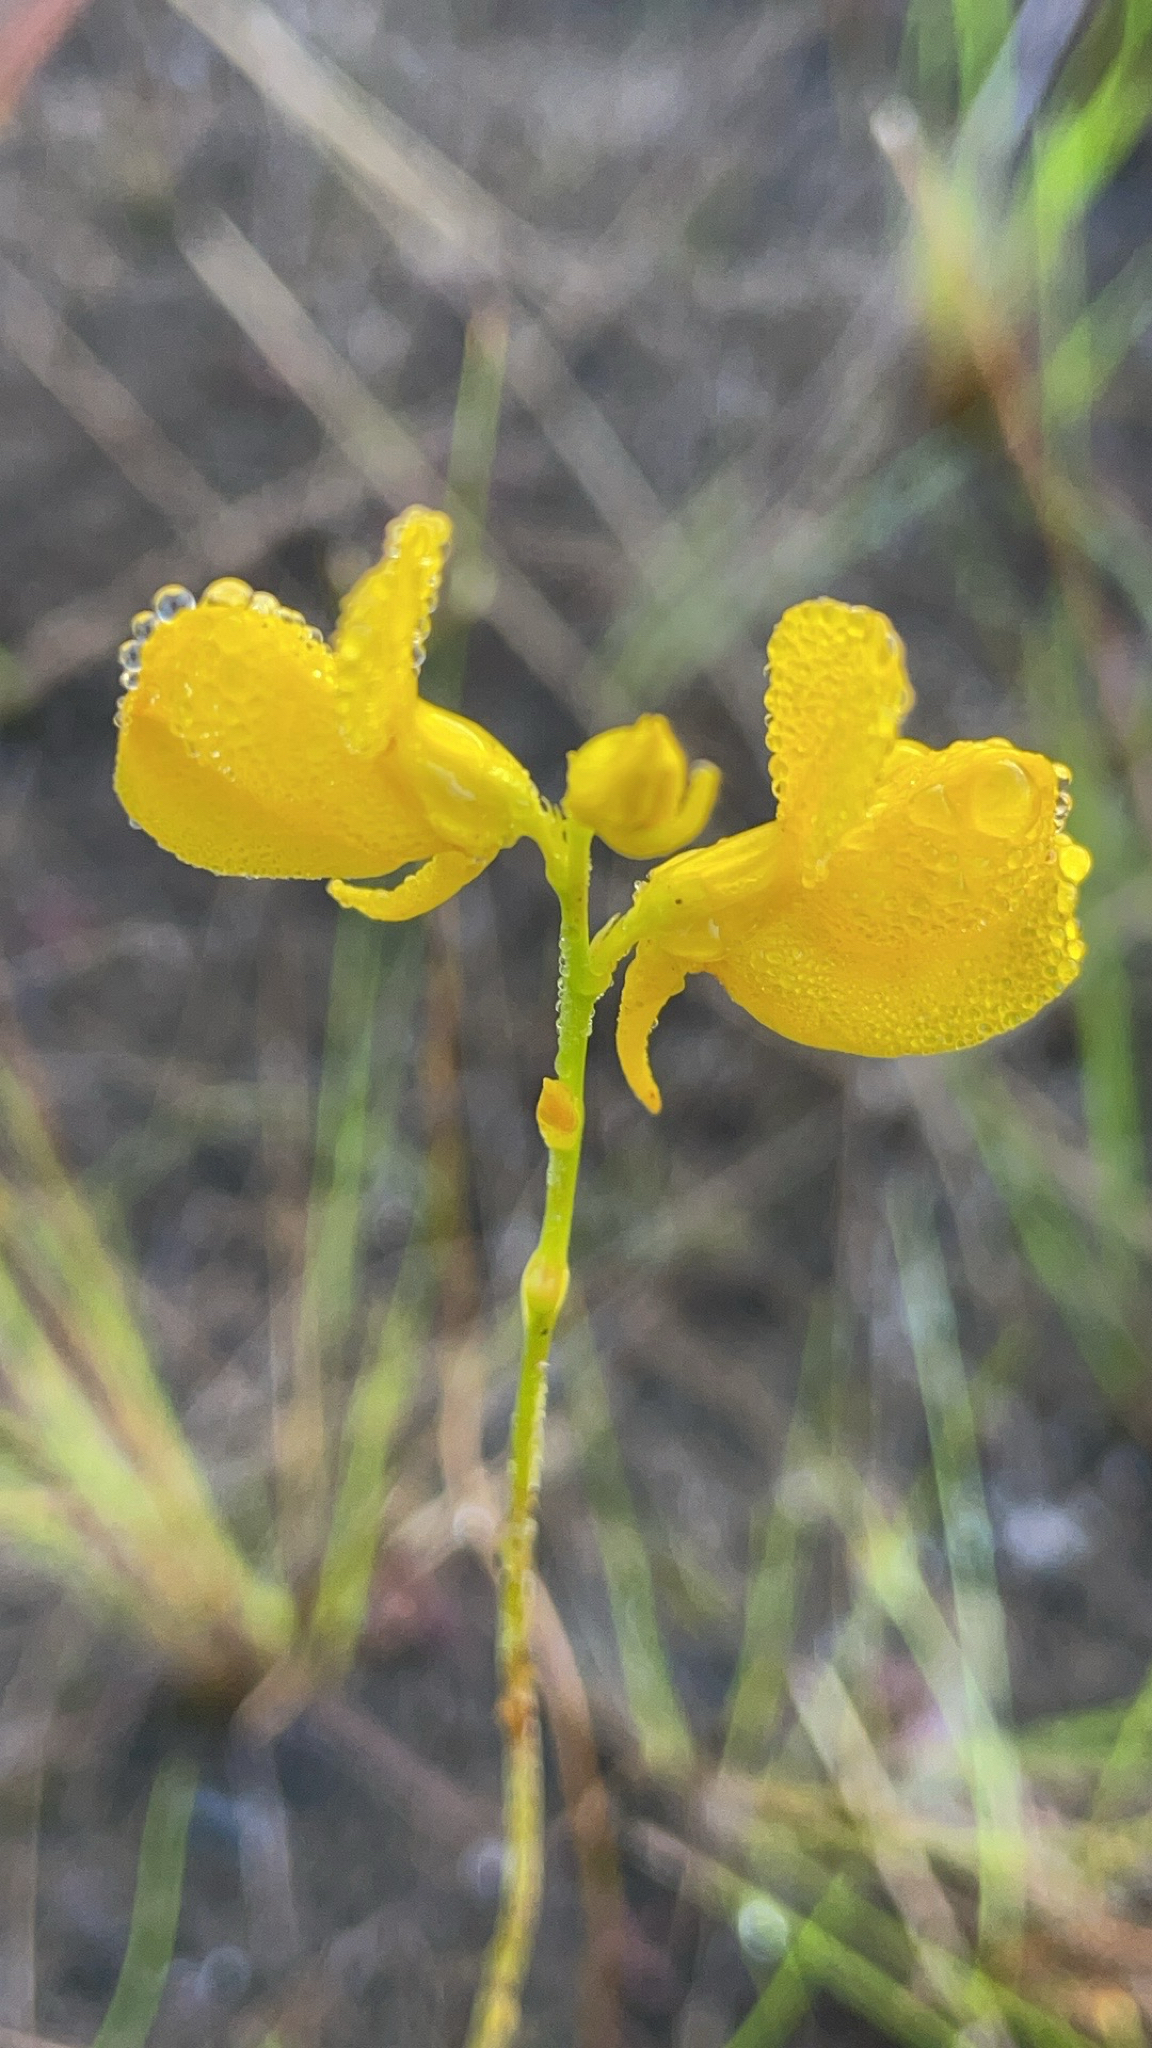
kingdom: Plantae
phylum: Tracheophyta
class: Magnoliopsida
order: Lamiales
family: Lentibulariaceae
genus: Utricularia
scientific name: Utricularia cornuta
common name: Horned bladderwort
